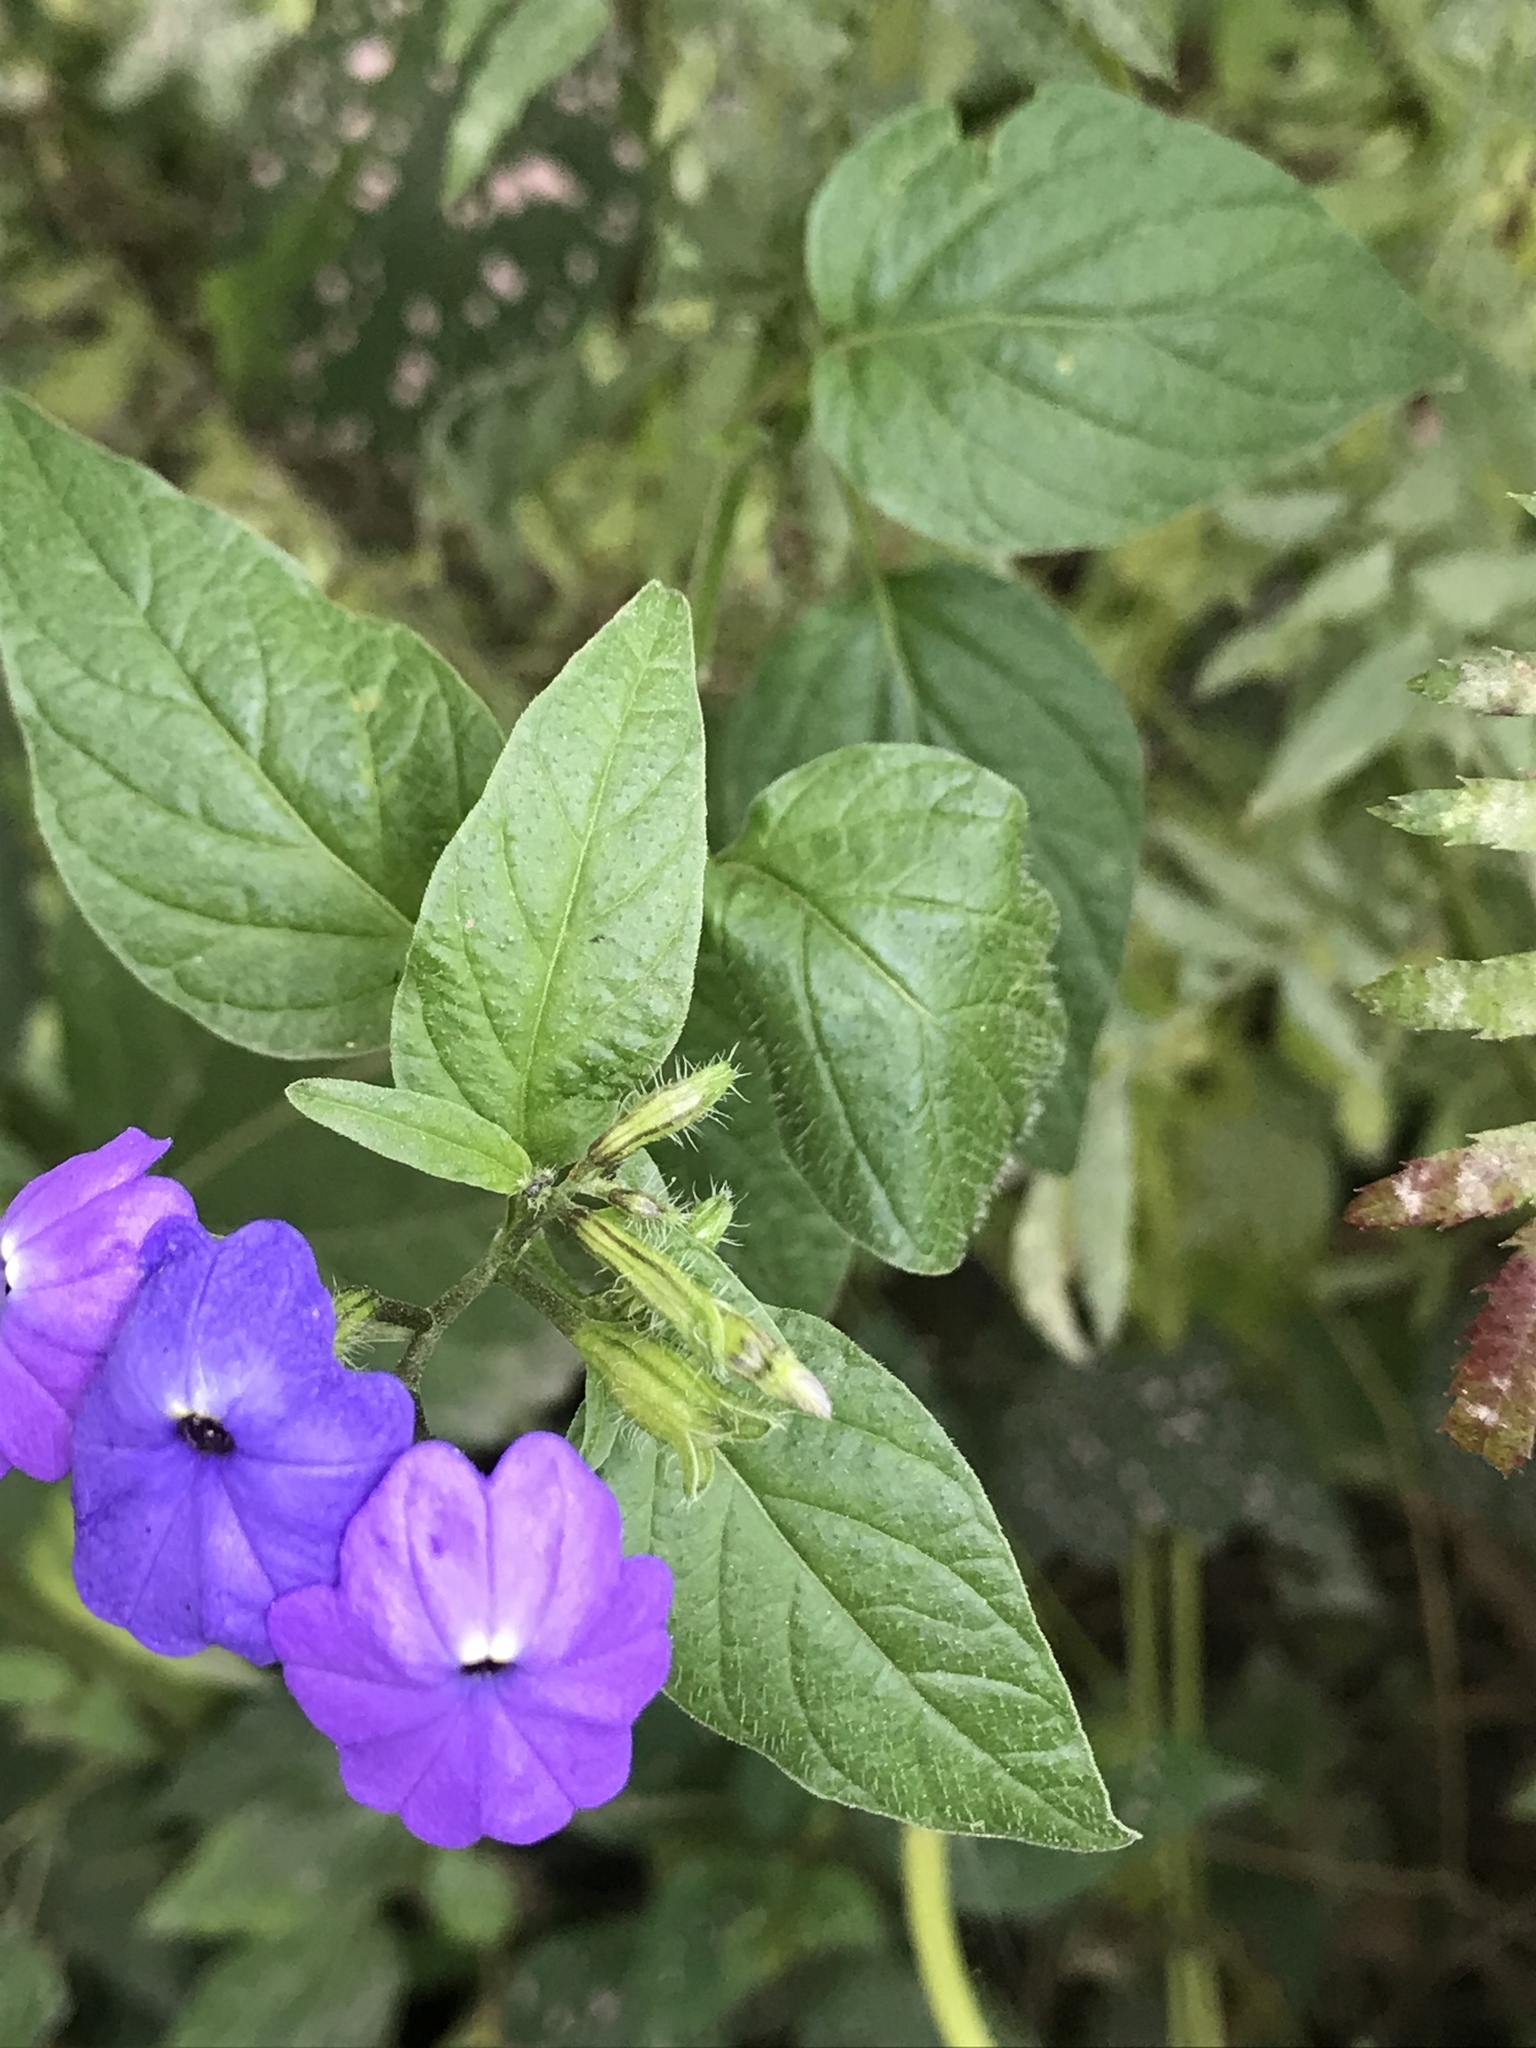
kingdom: Plantae
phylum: Tracheophyta
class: Magnoliopsida
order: Solanales
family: Solanaceae
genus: Browallia
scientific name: Browallia americana
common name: Jamaican forget-me-not
